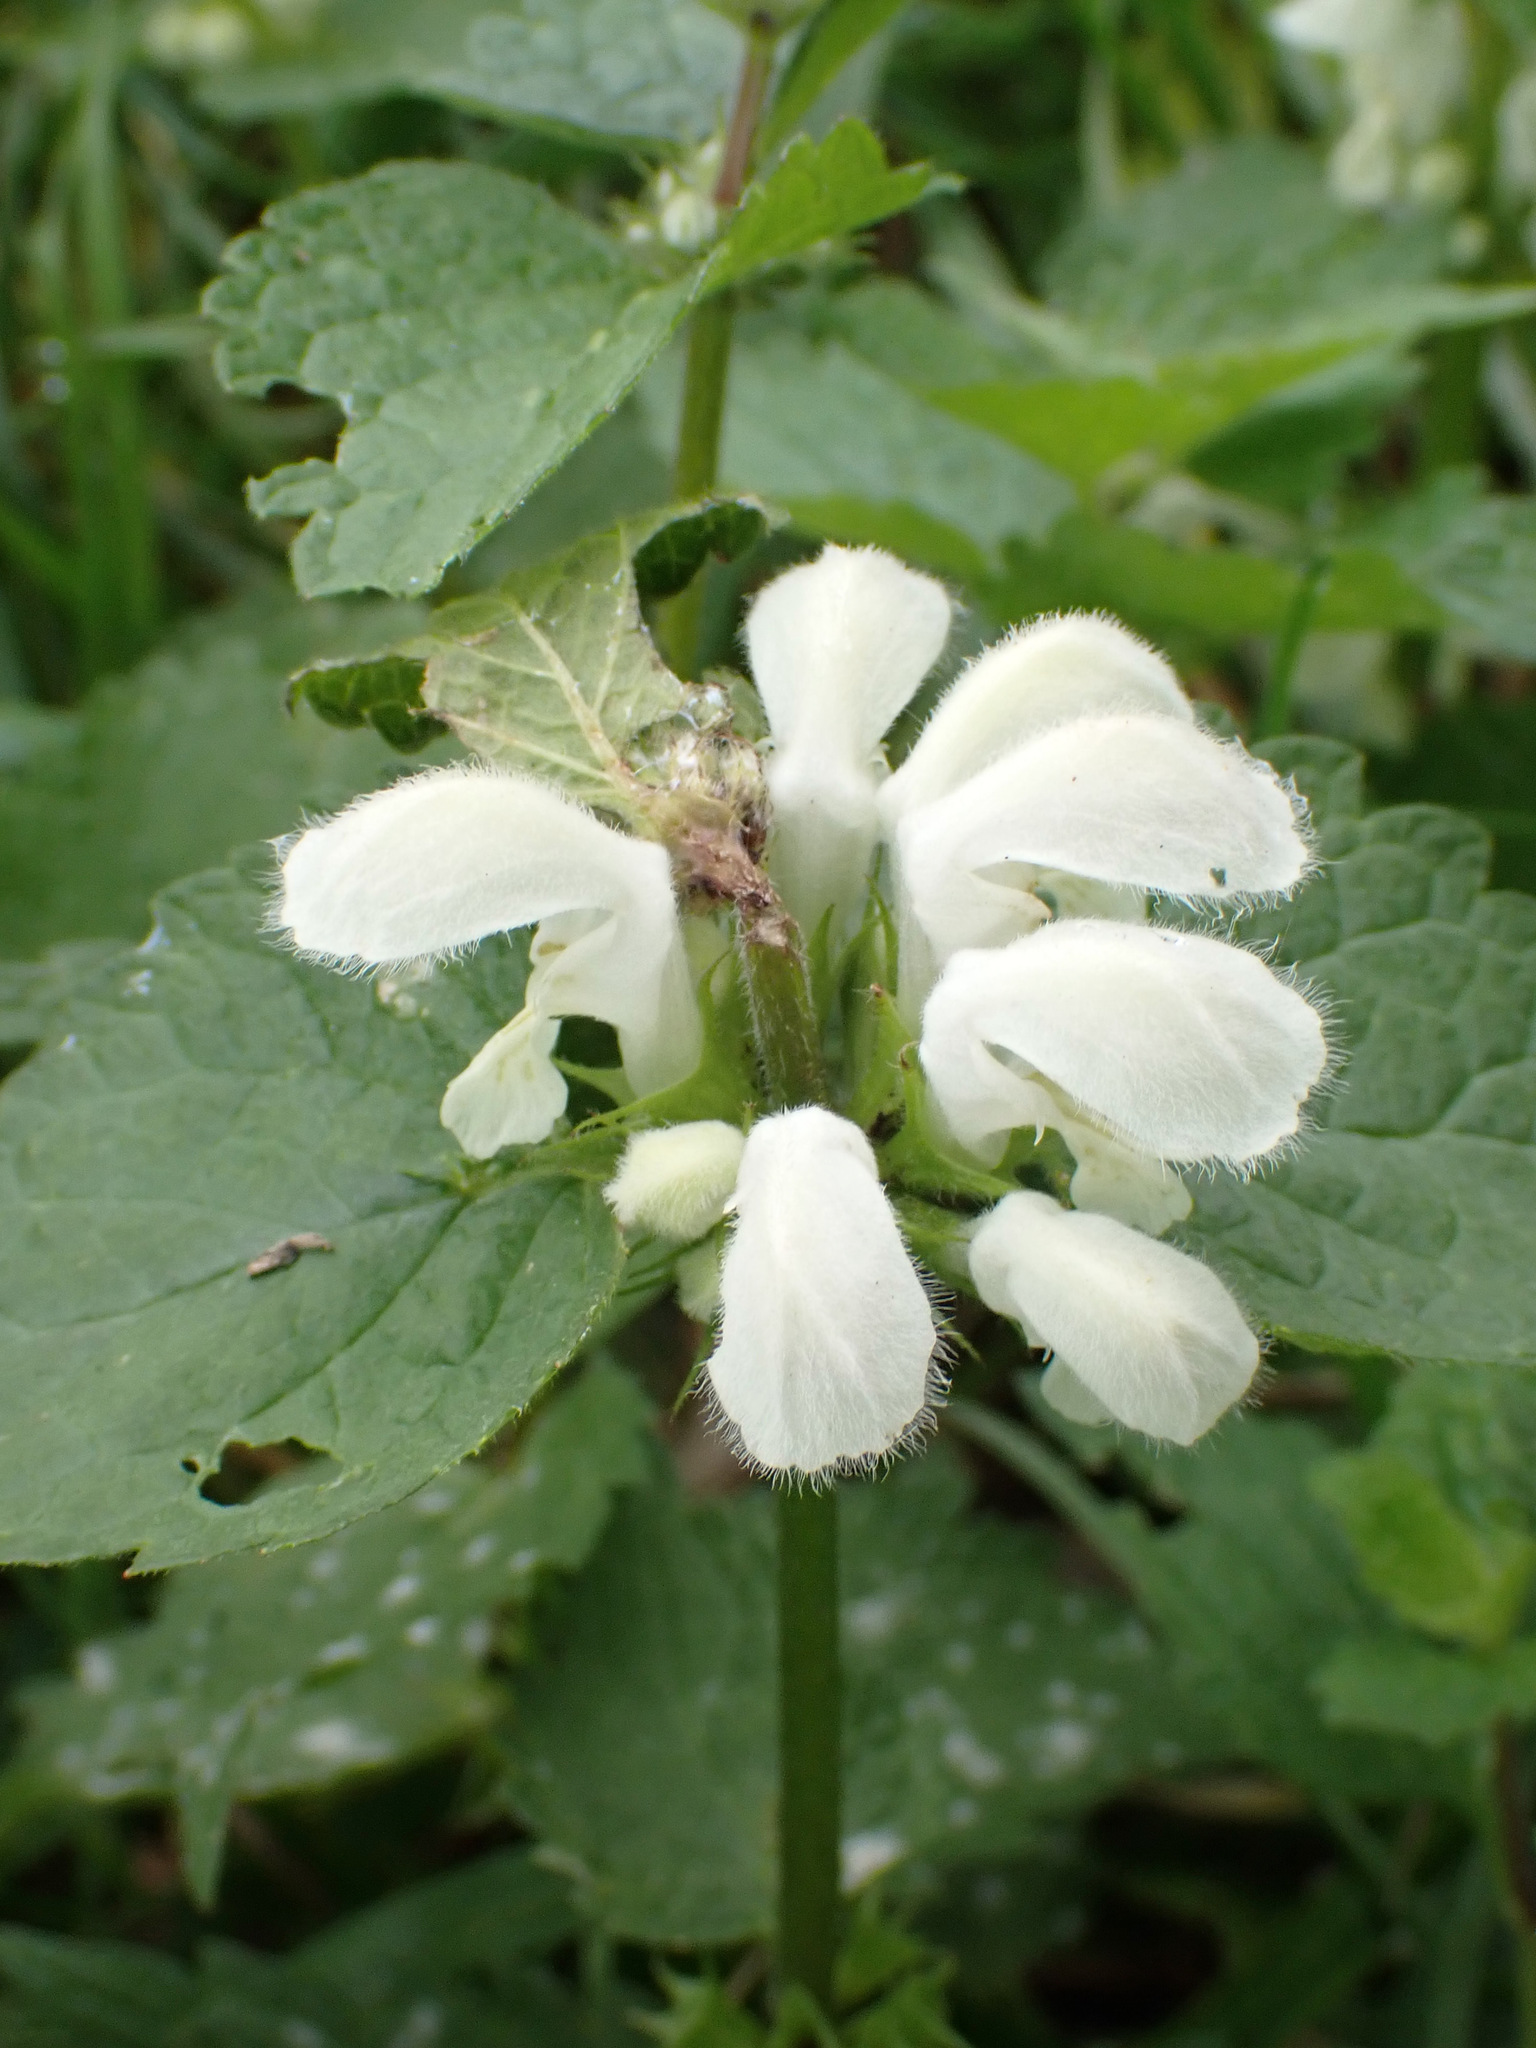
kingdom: Plantae
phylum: Tracheophyta
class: Magnoliopsida
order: Lamiales
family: Lamiaceae
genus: Lamium
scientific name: Lamium album
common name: White dead-nettle
